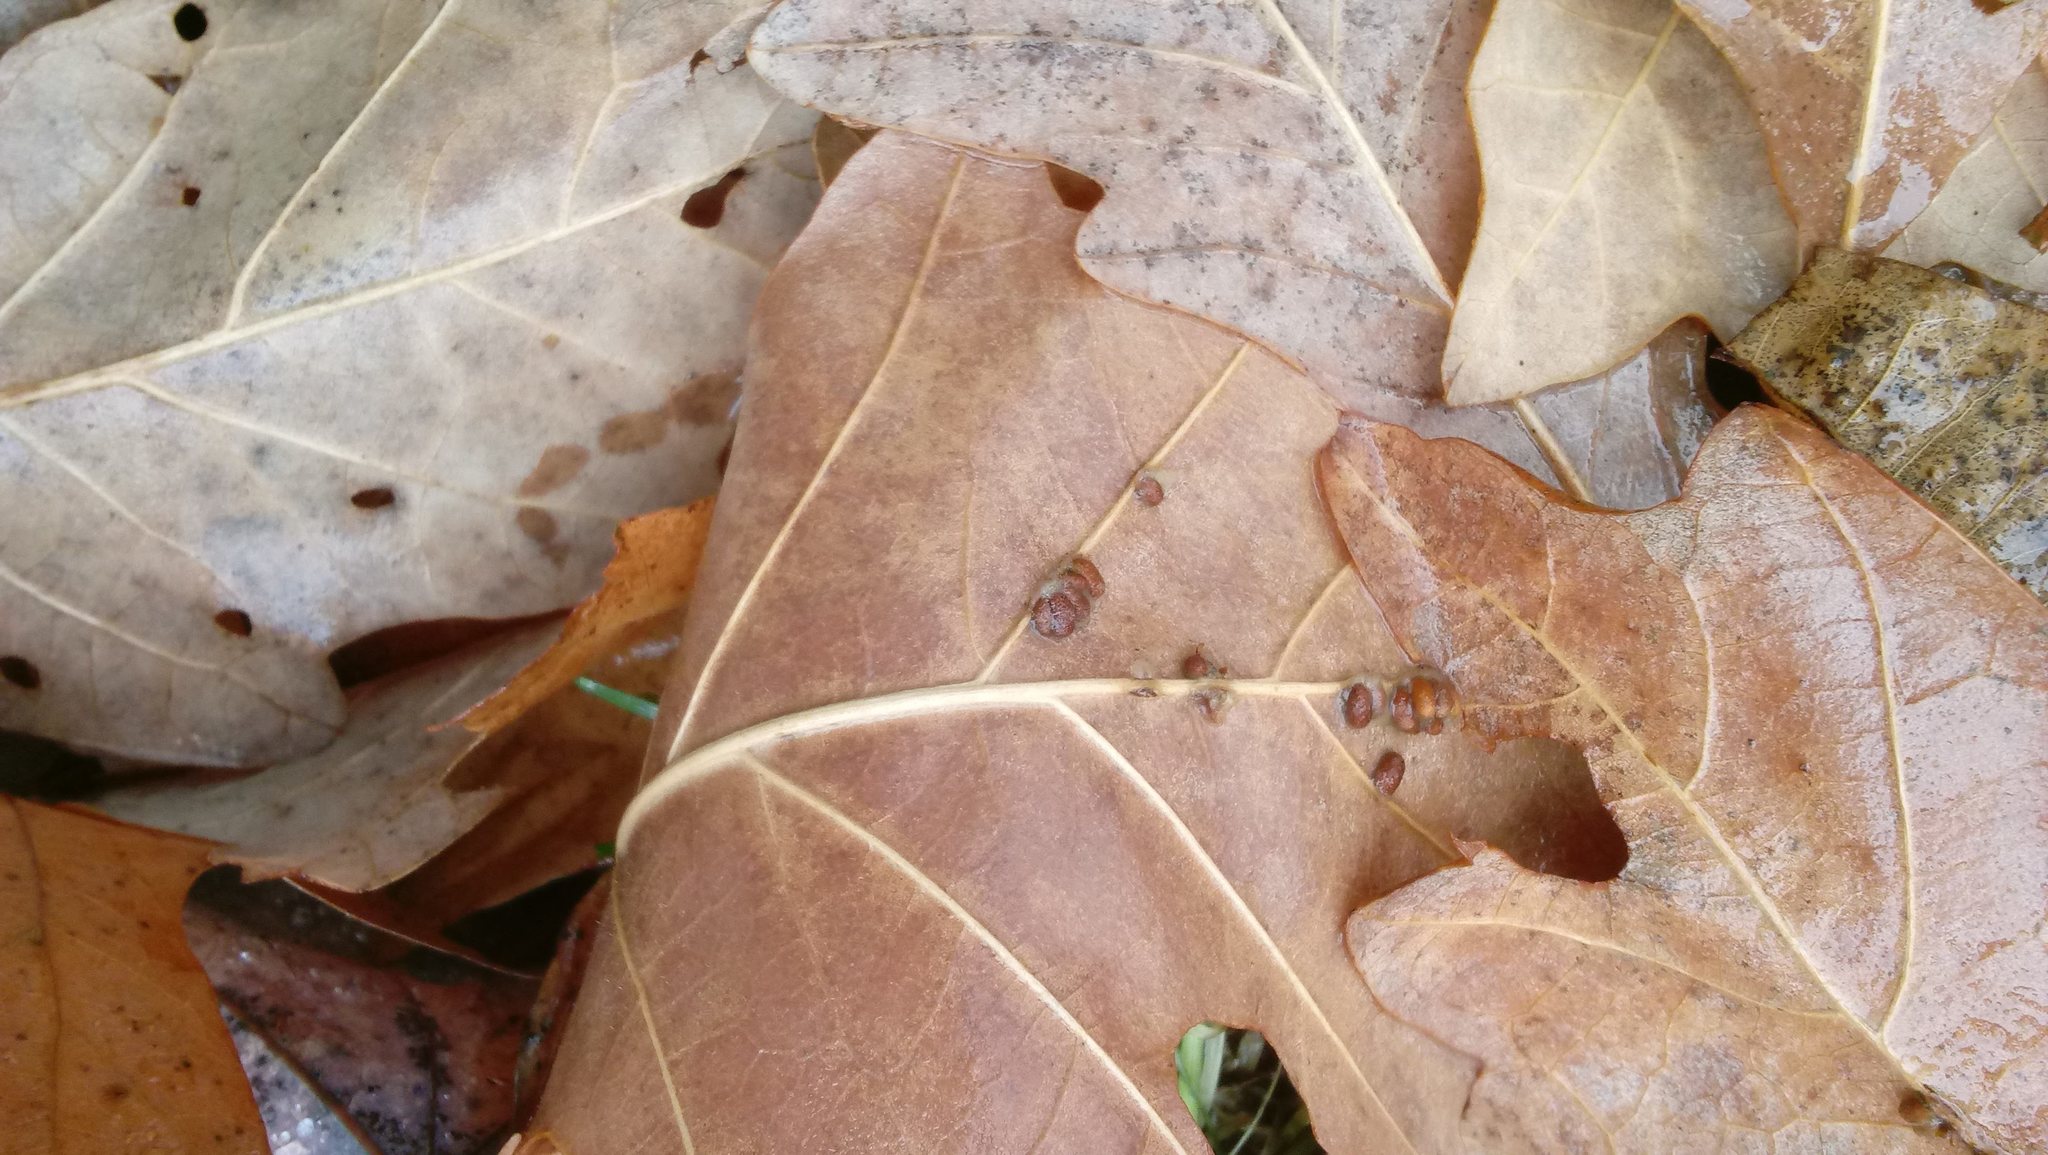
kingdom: Animalia
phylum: Arthropoda
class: Insecta
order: Hymenoptera
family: Cynipidae
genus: Andricus
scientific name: Andricus Druon ignotum
